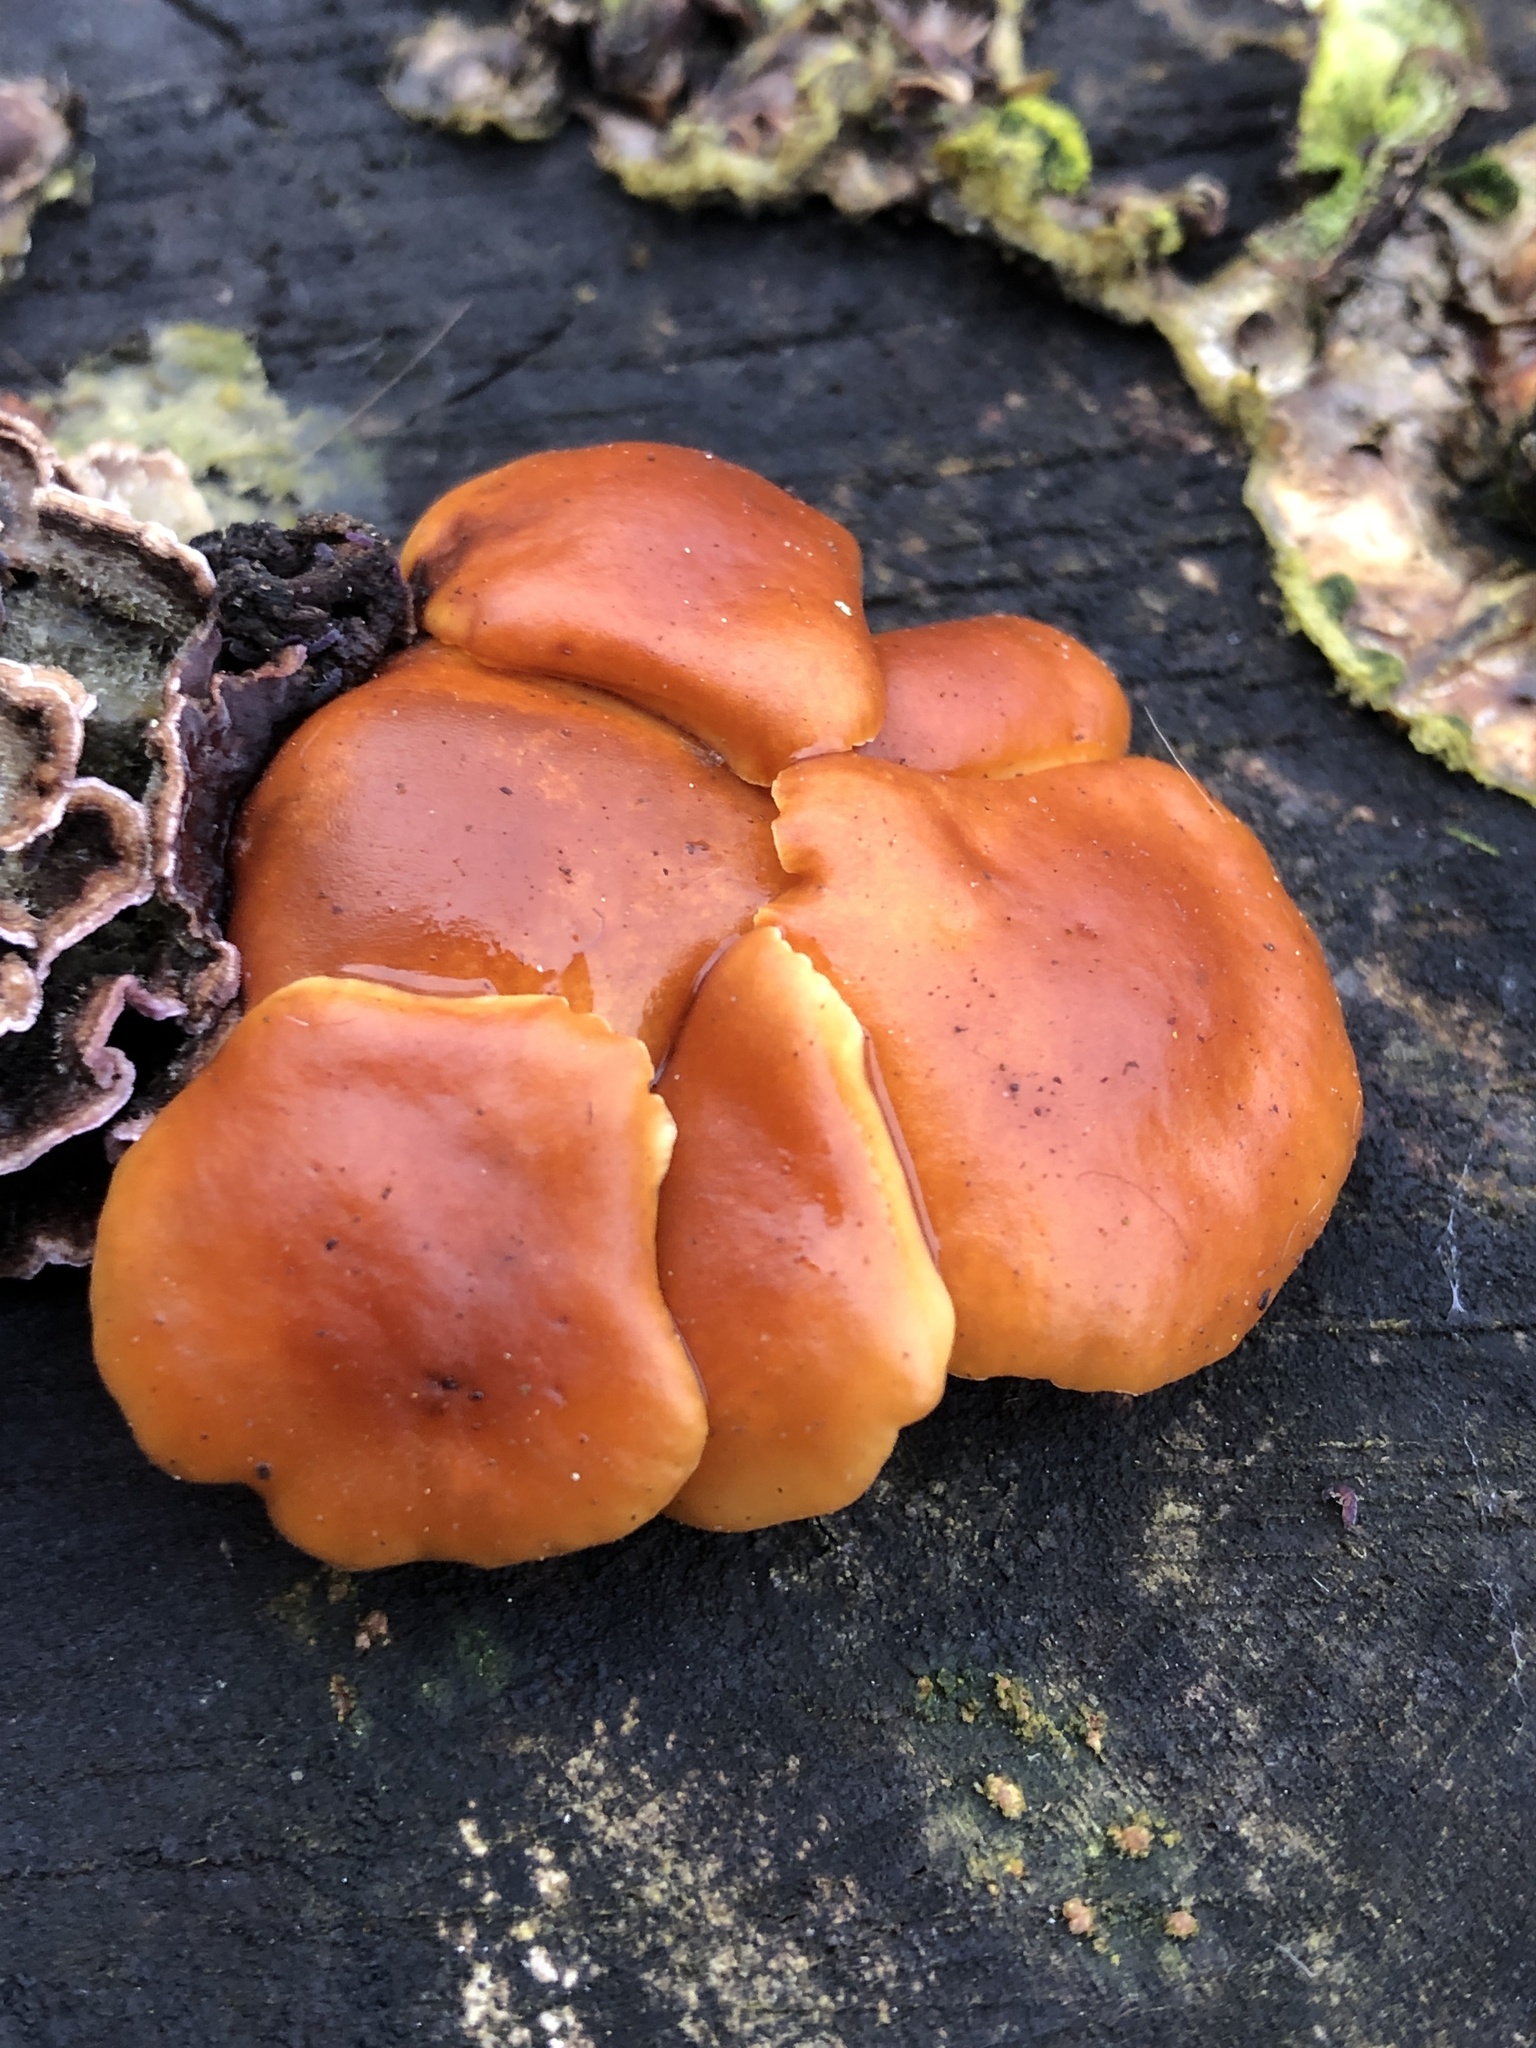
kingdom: Fungi
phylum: Basidiomycota
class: Agaricomycetes
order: Agaricales
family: Physalacriaceae
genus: Flammulina
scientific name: Flammulina
